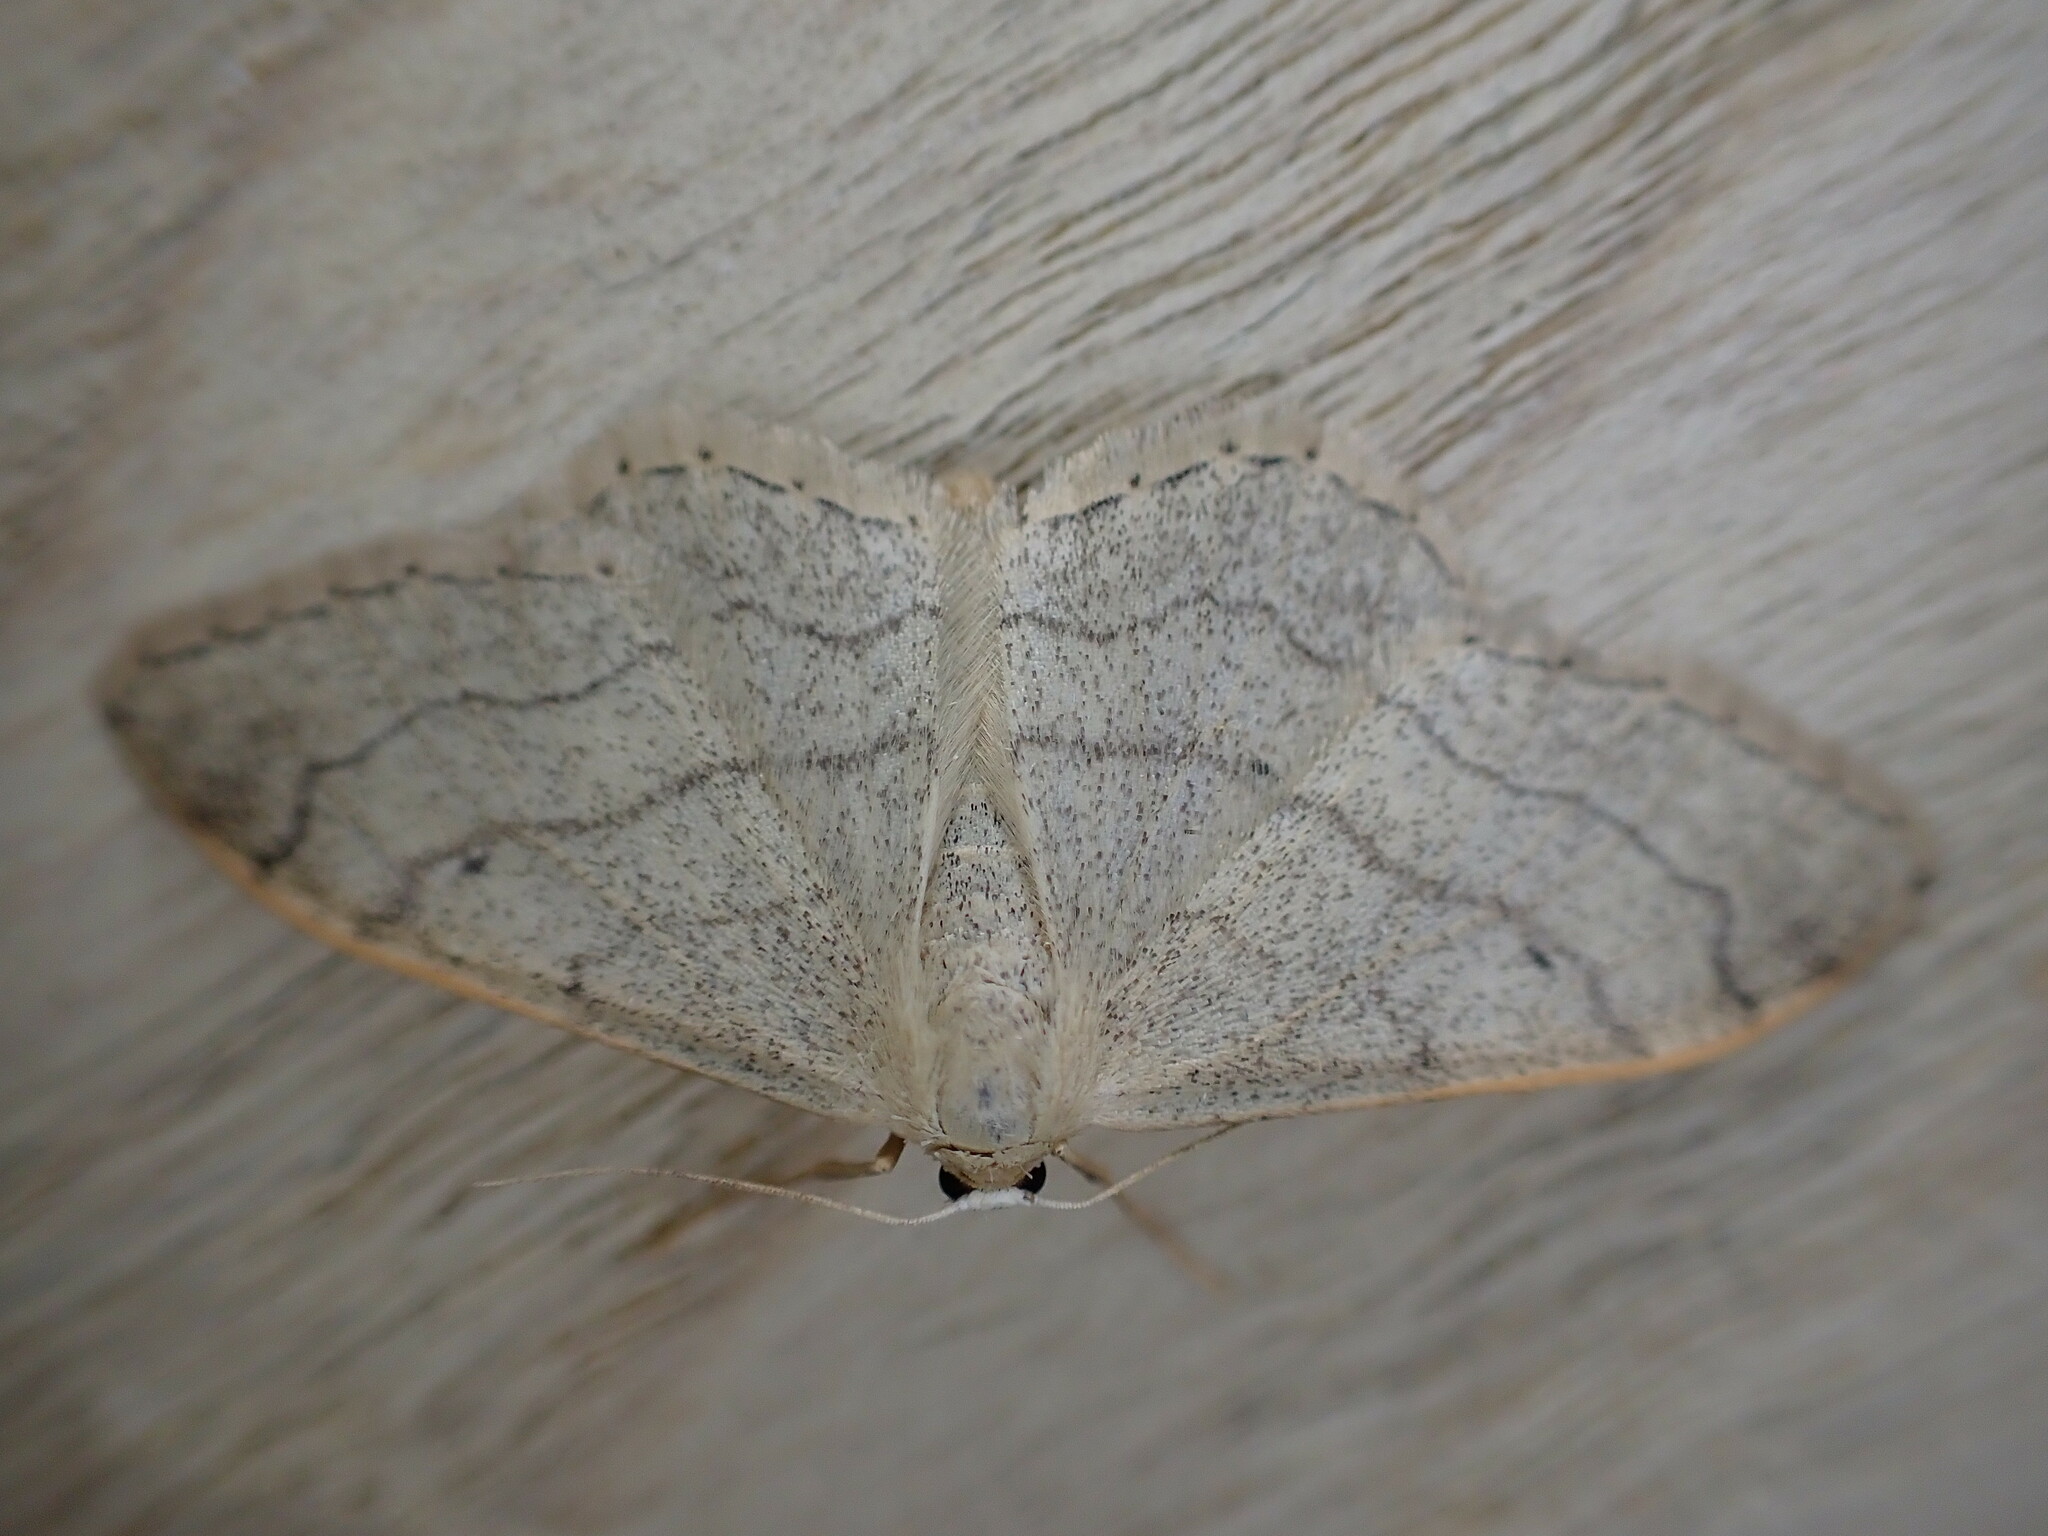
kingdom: Animalia
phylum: Arthropoda
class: Insecta
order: Lepidoptera
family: Geometridae
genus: Idaea
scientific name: Idaea aversata
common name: Riband wave
